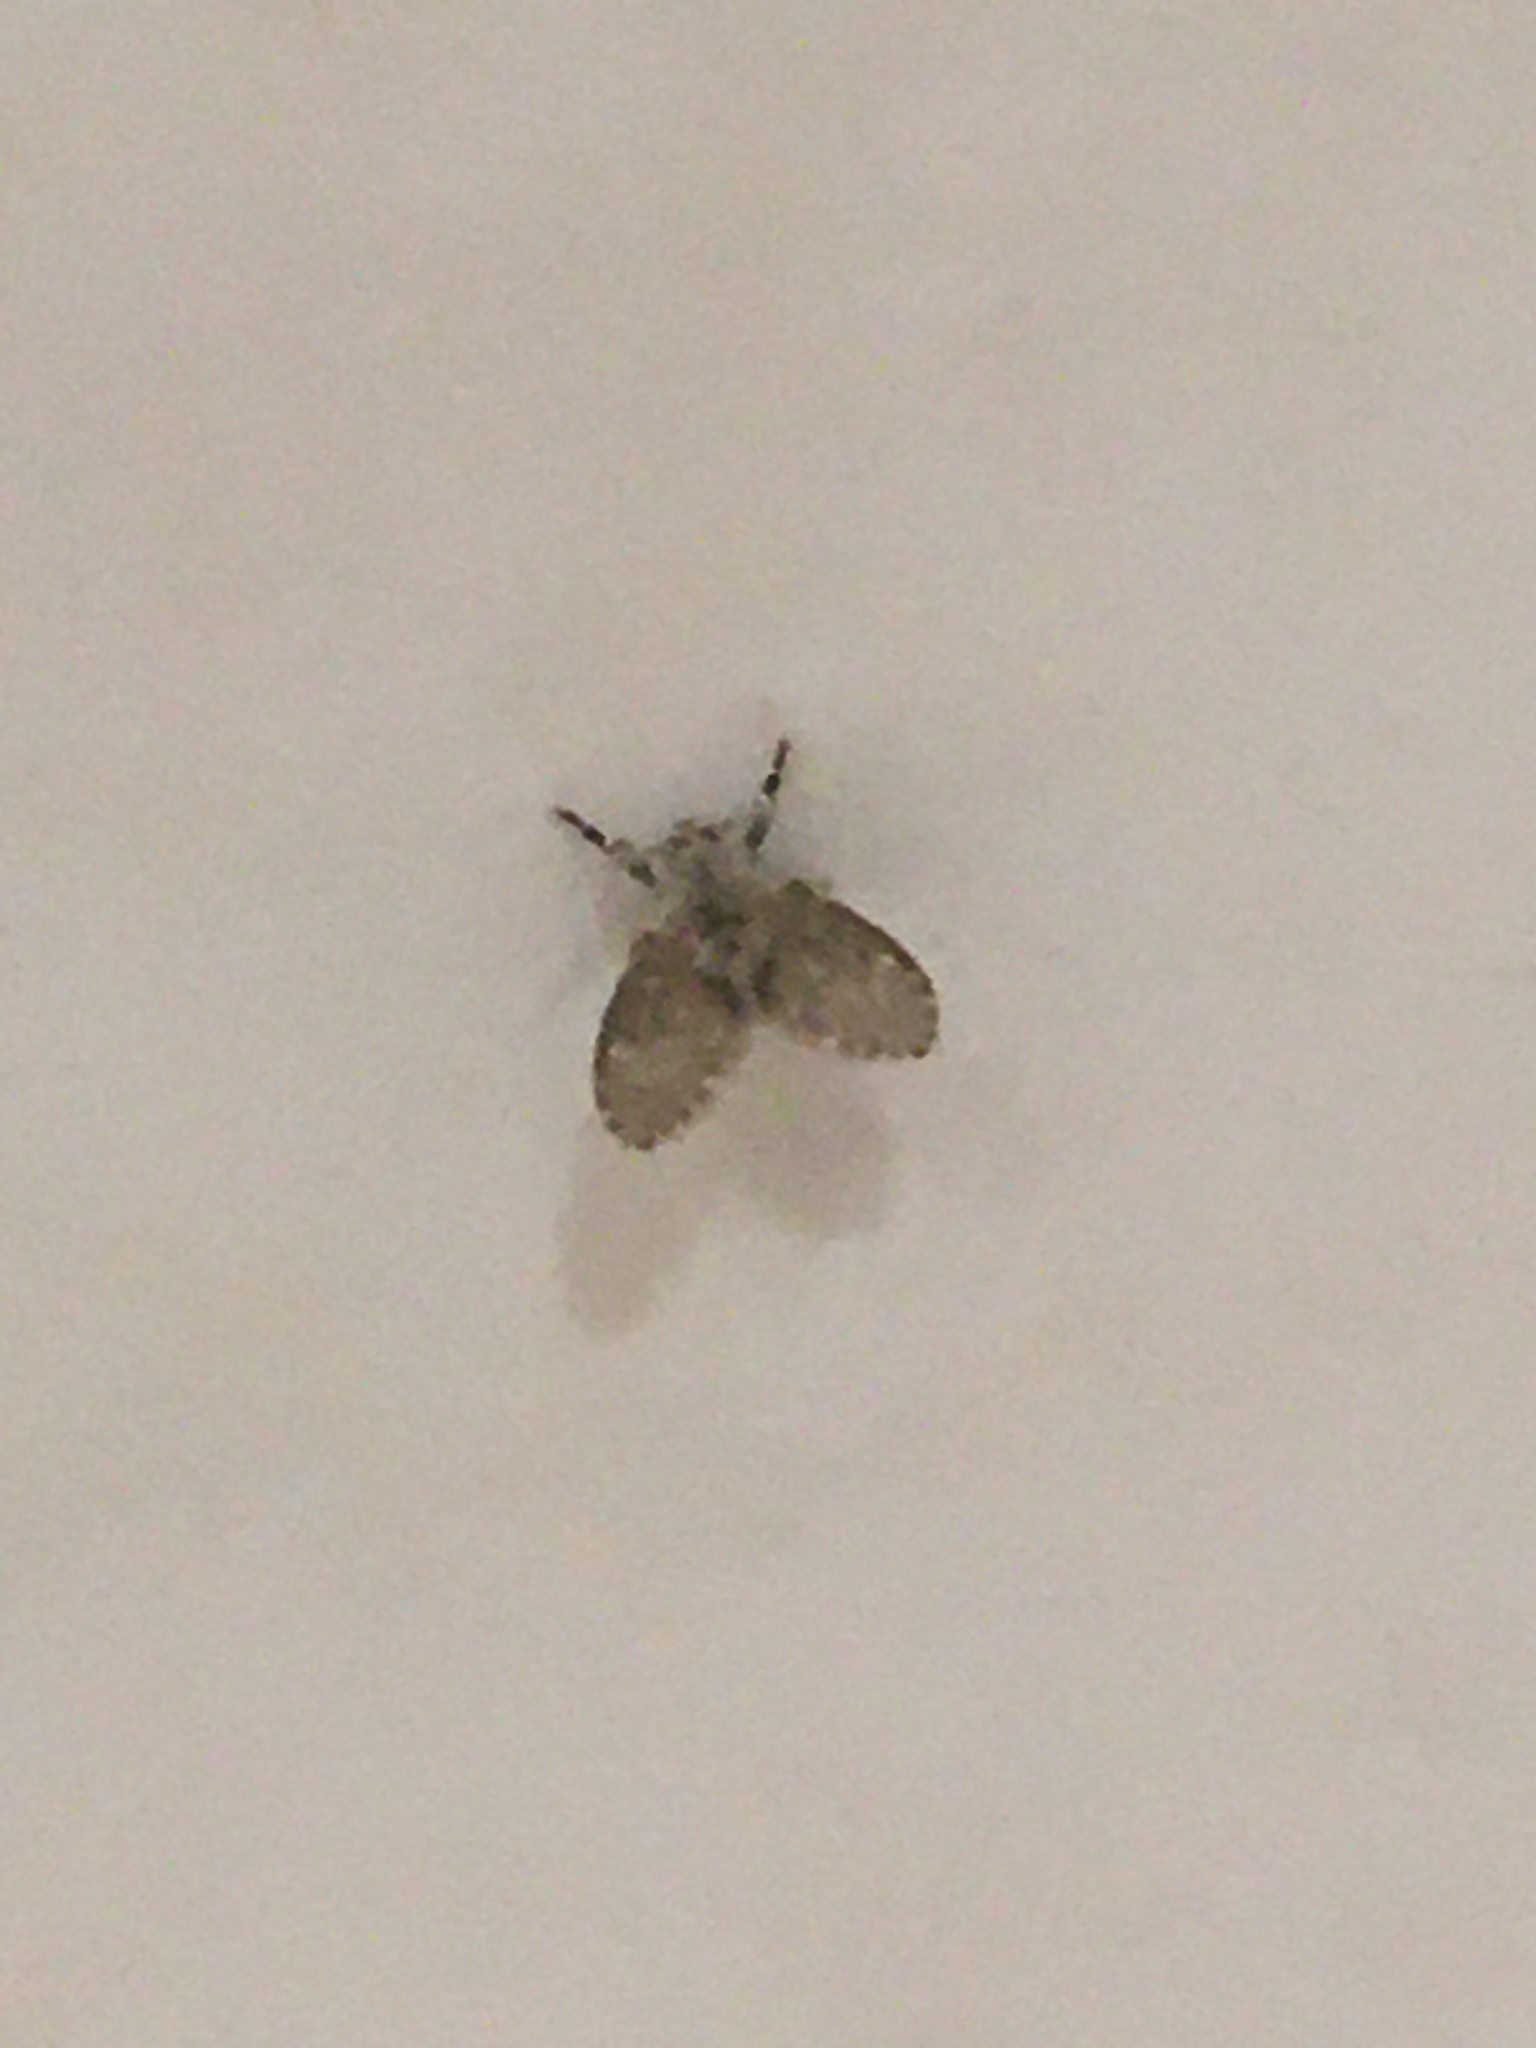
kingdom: Animalia
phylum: Arthropoda
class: Insecta
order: Diptera
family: Psychodidae
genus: Clogmia
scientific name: Clogmia albipunctatus
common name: White-spotted moth fly
